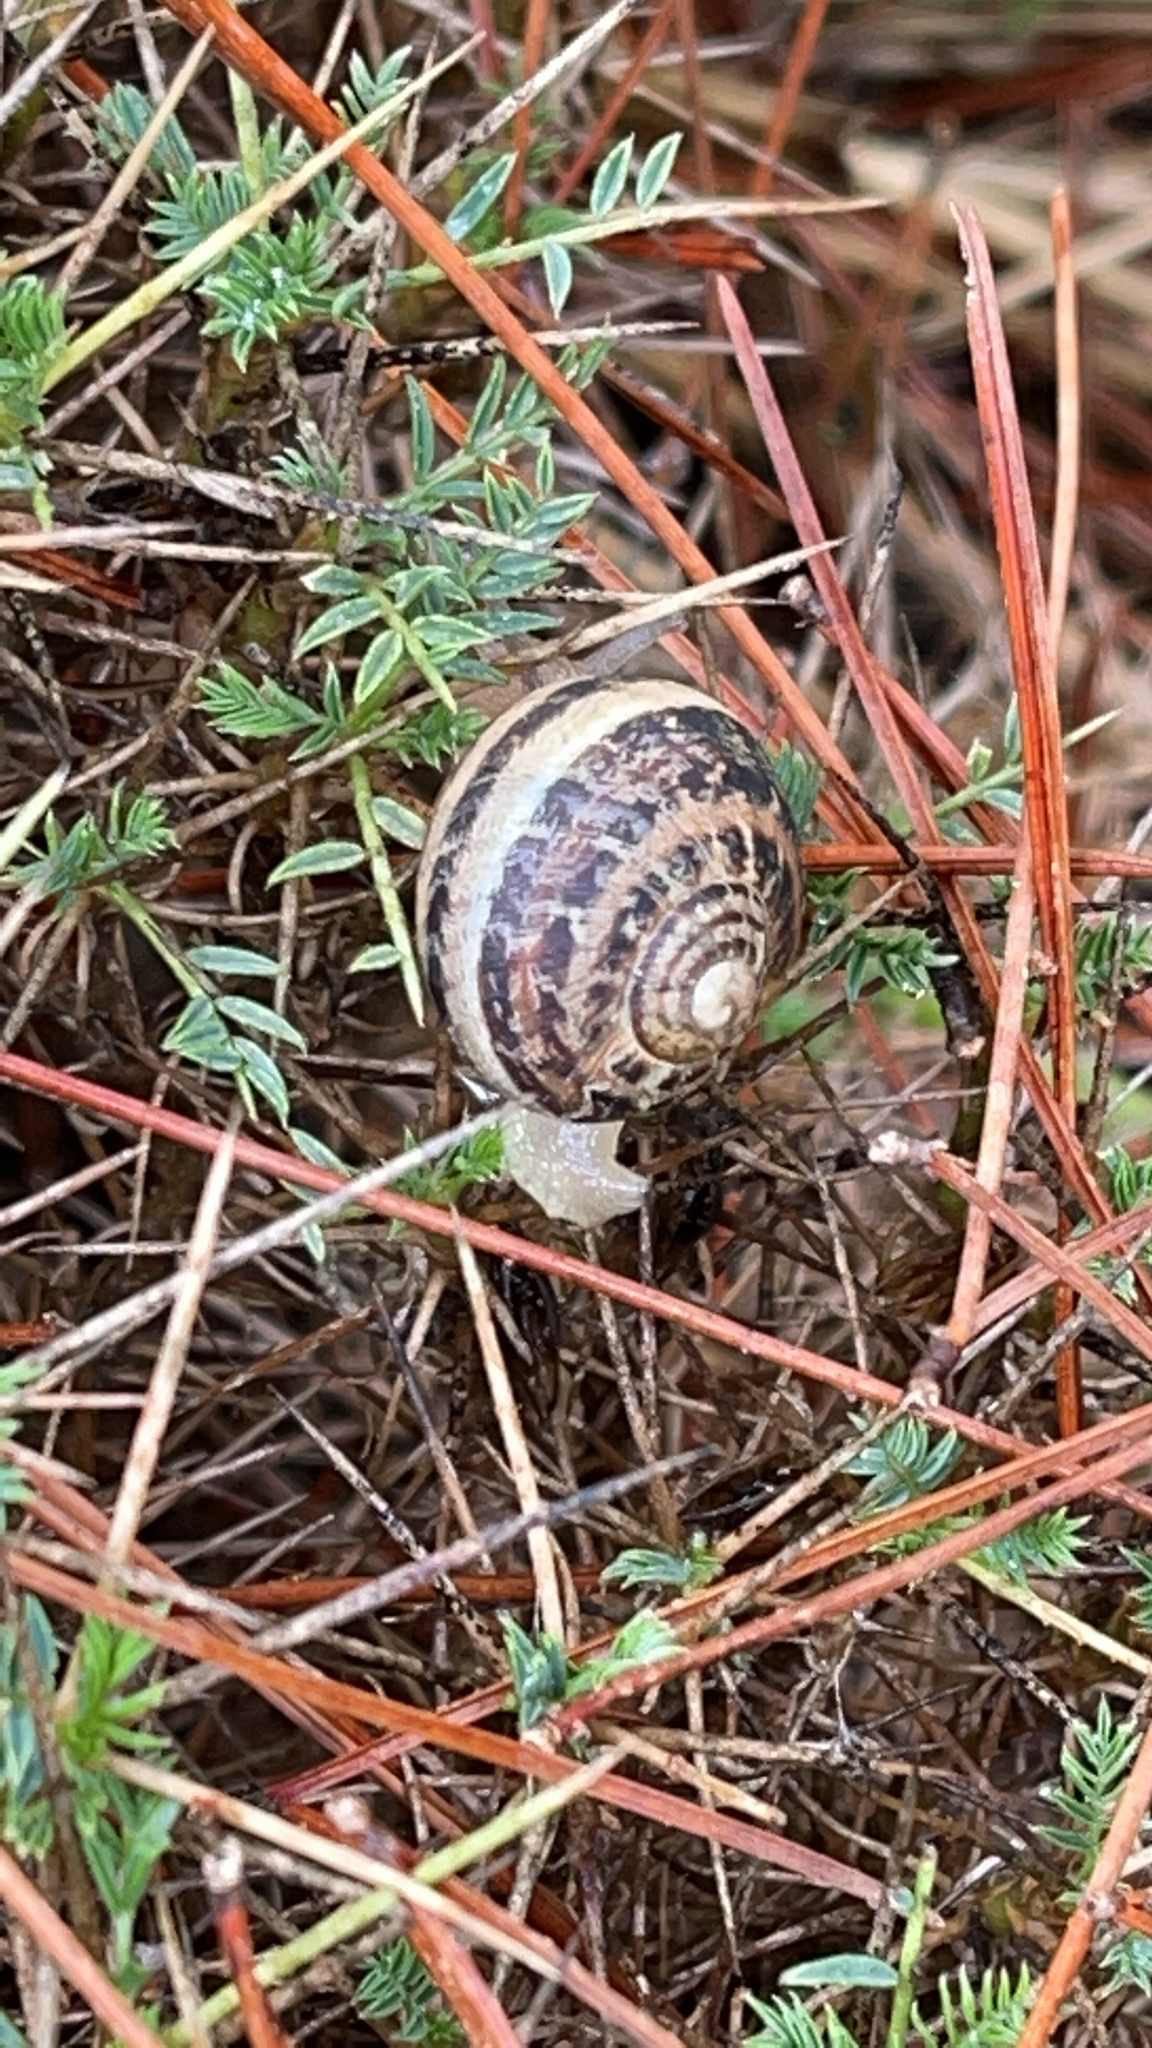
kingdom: Animalia
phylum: Mollusca
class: Gastropoda
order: Stylommatophora
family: Helicidae
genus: Cornu
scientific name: Cornu aspersum
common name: Brown garden snail
